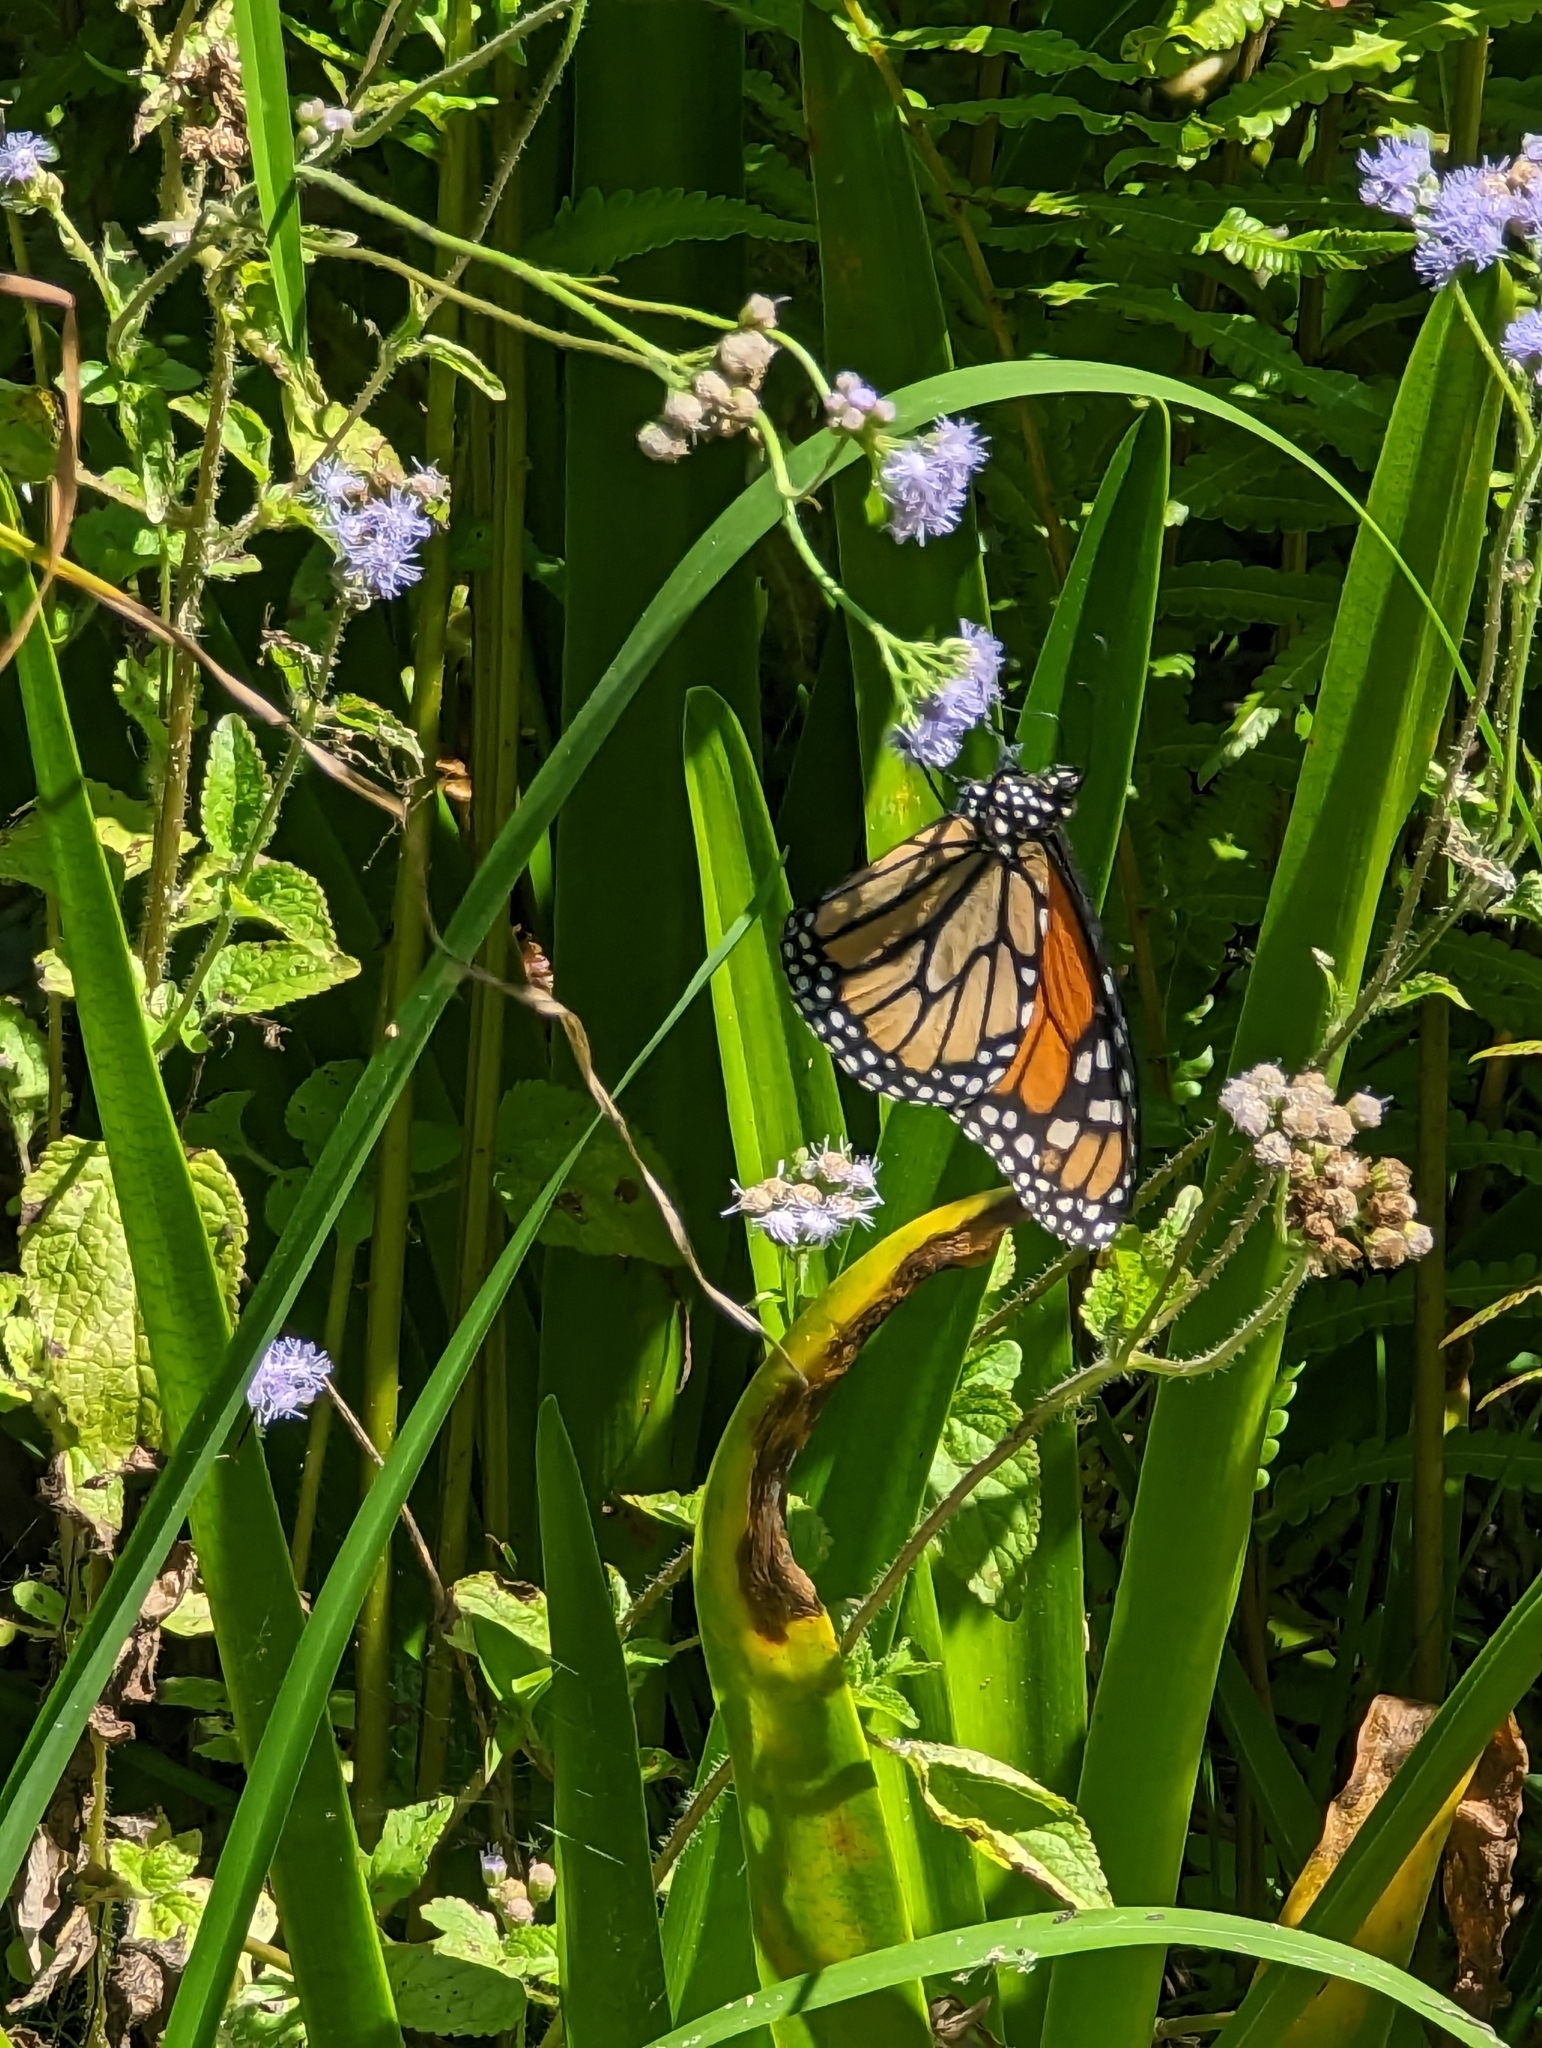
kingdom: Animalia
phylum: Arthropoda
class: Insecta
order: Lepidoptera
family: Nymphalidae
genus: Danaus
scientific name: Danaus plexippus
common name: Monarch
